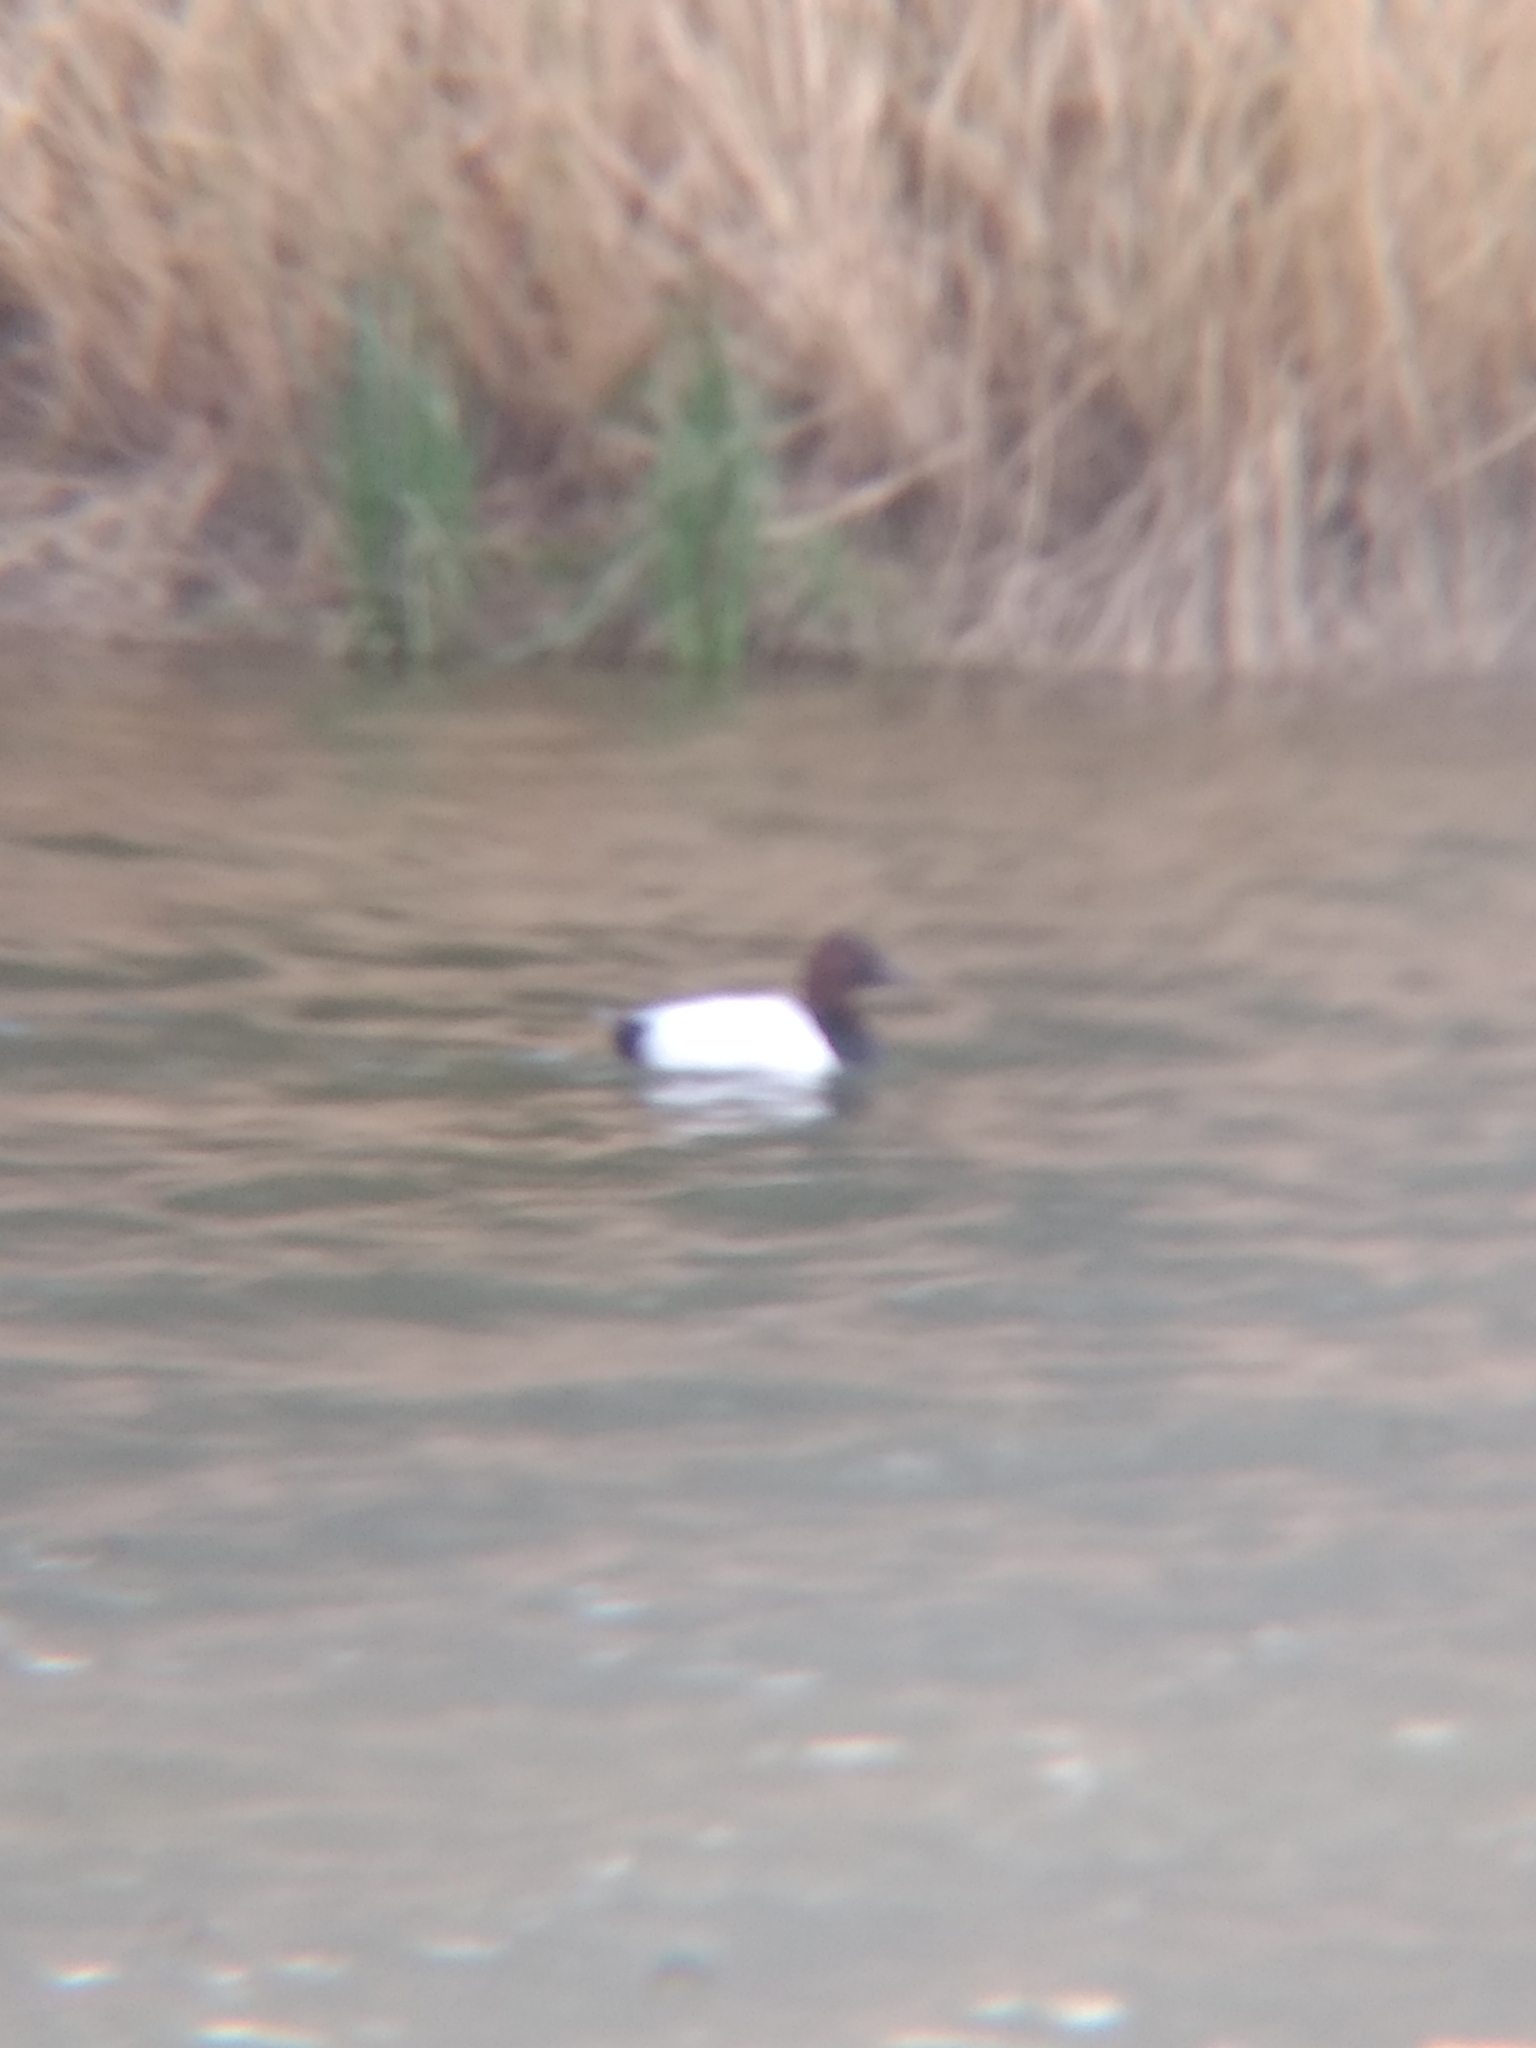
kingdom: Animalia
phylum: Chordata
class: Aves
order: Anseriformes
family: Anatidae
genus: Aythya
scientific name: Aythya valisineria
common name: Canvasback
